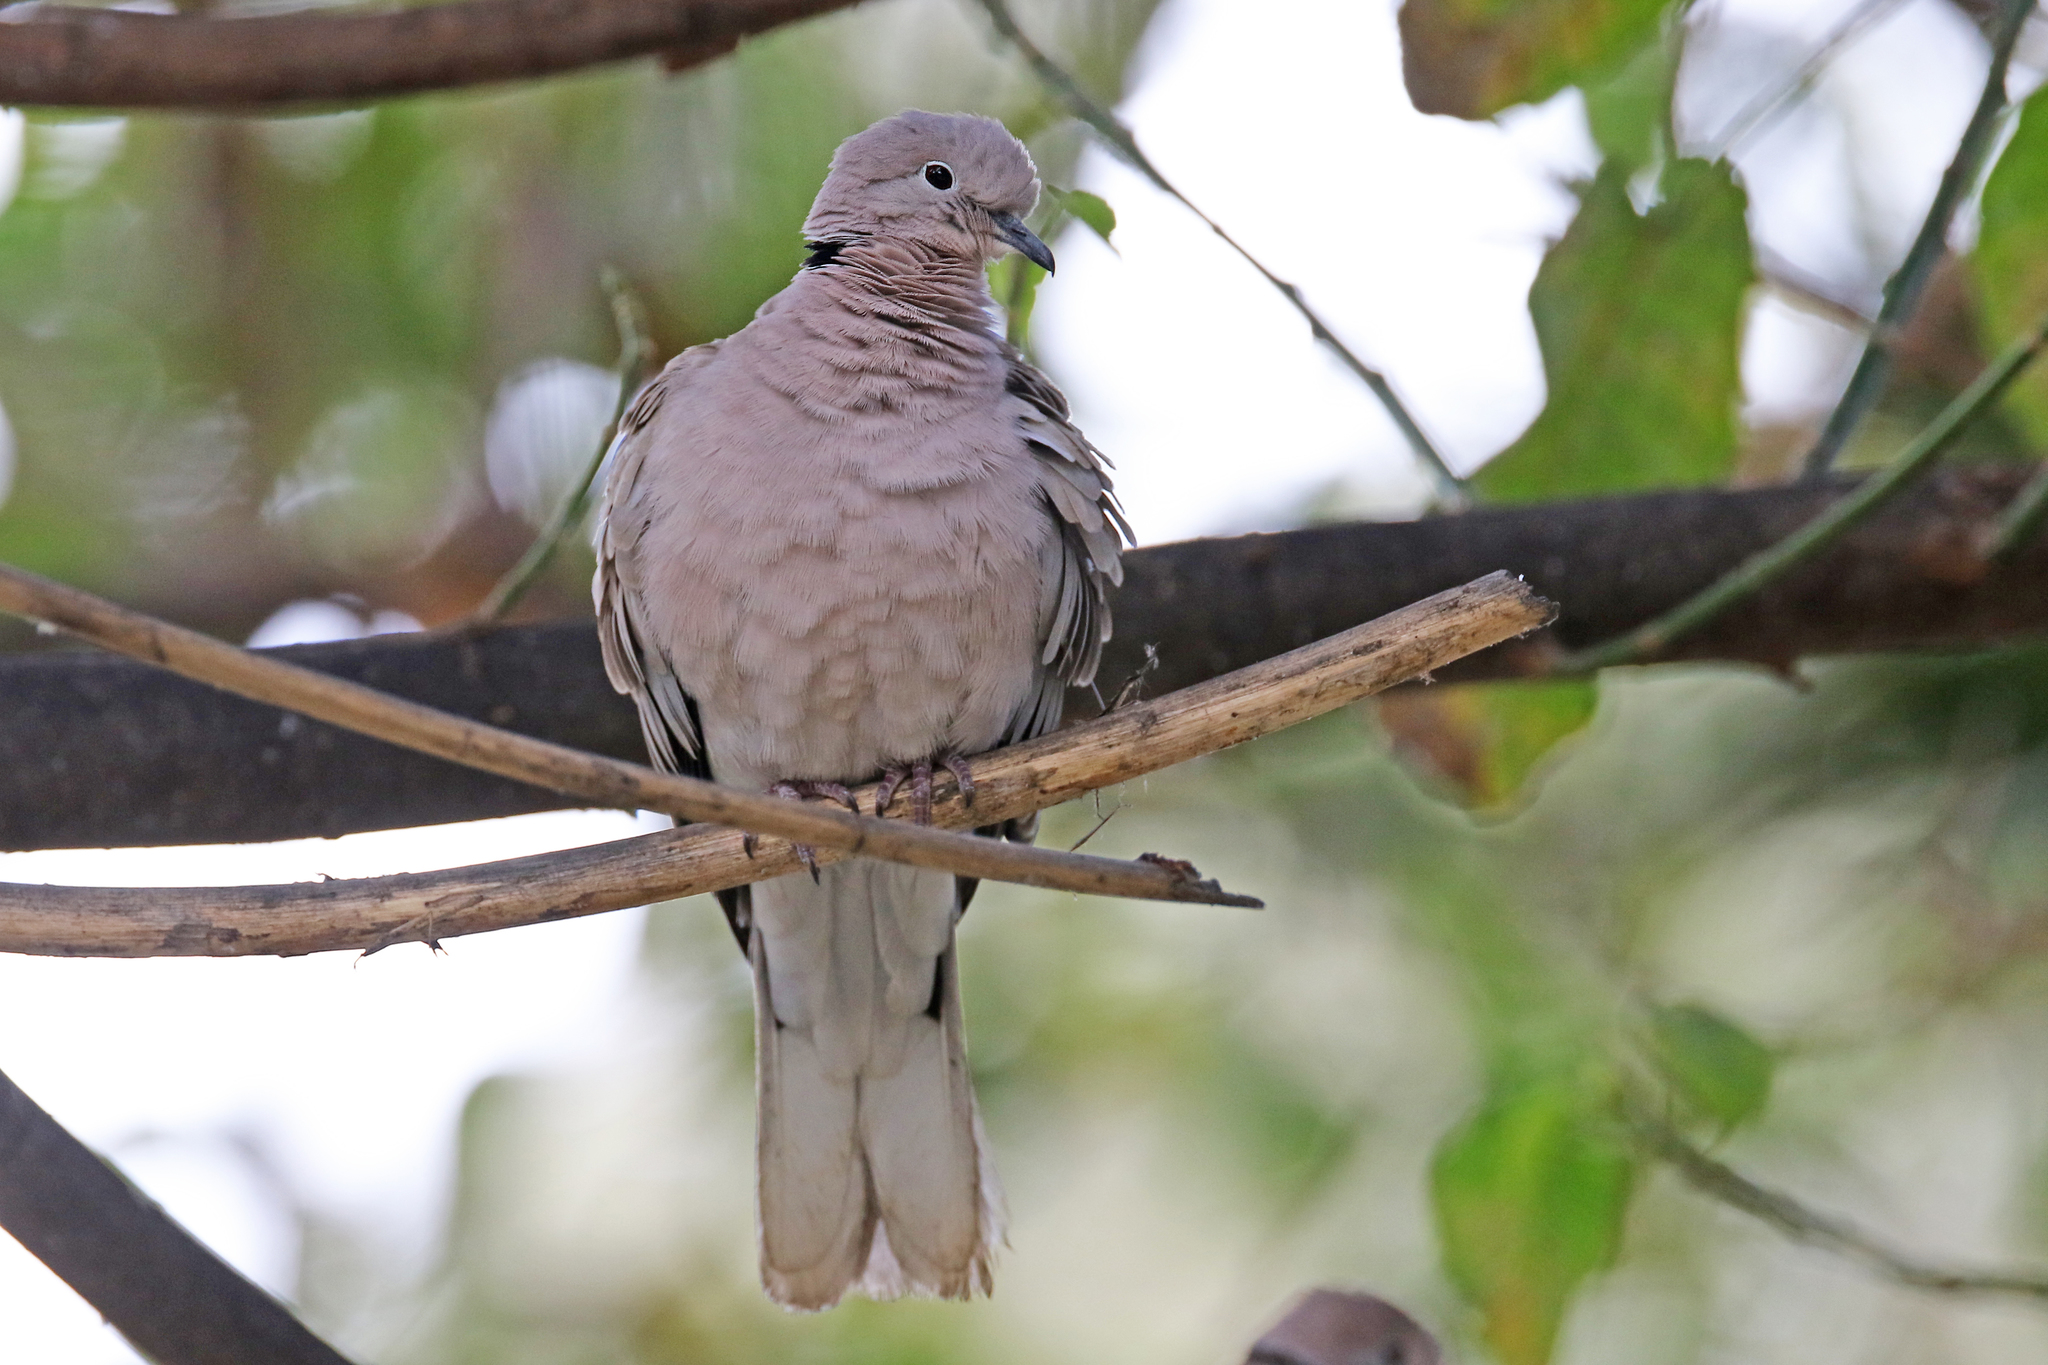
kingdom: Animalia
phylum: Chordata
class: Aves
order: Columbiformes
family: Columbidae
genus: Streptopelia
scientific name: Streptopelia decaocto
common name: Eurasian collared dove
